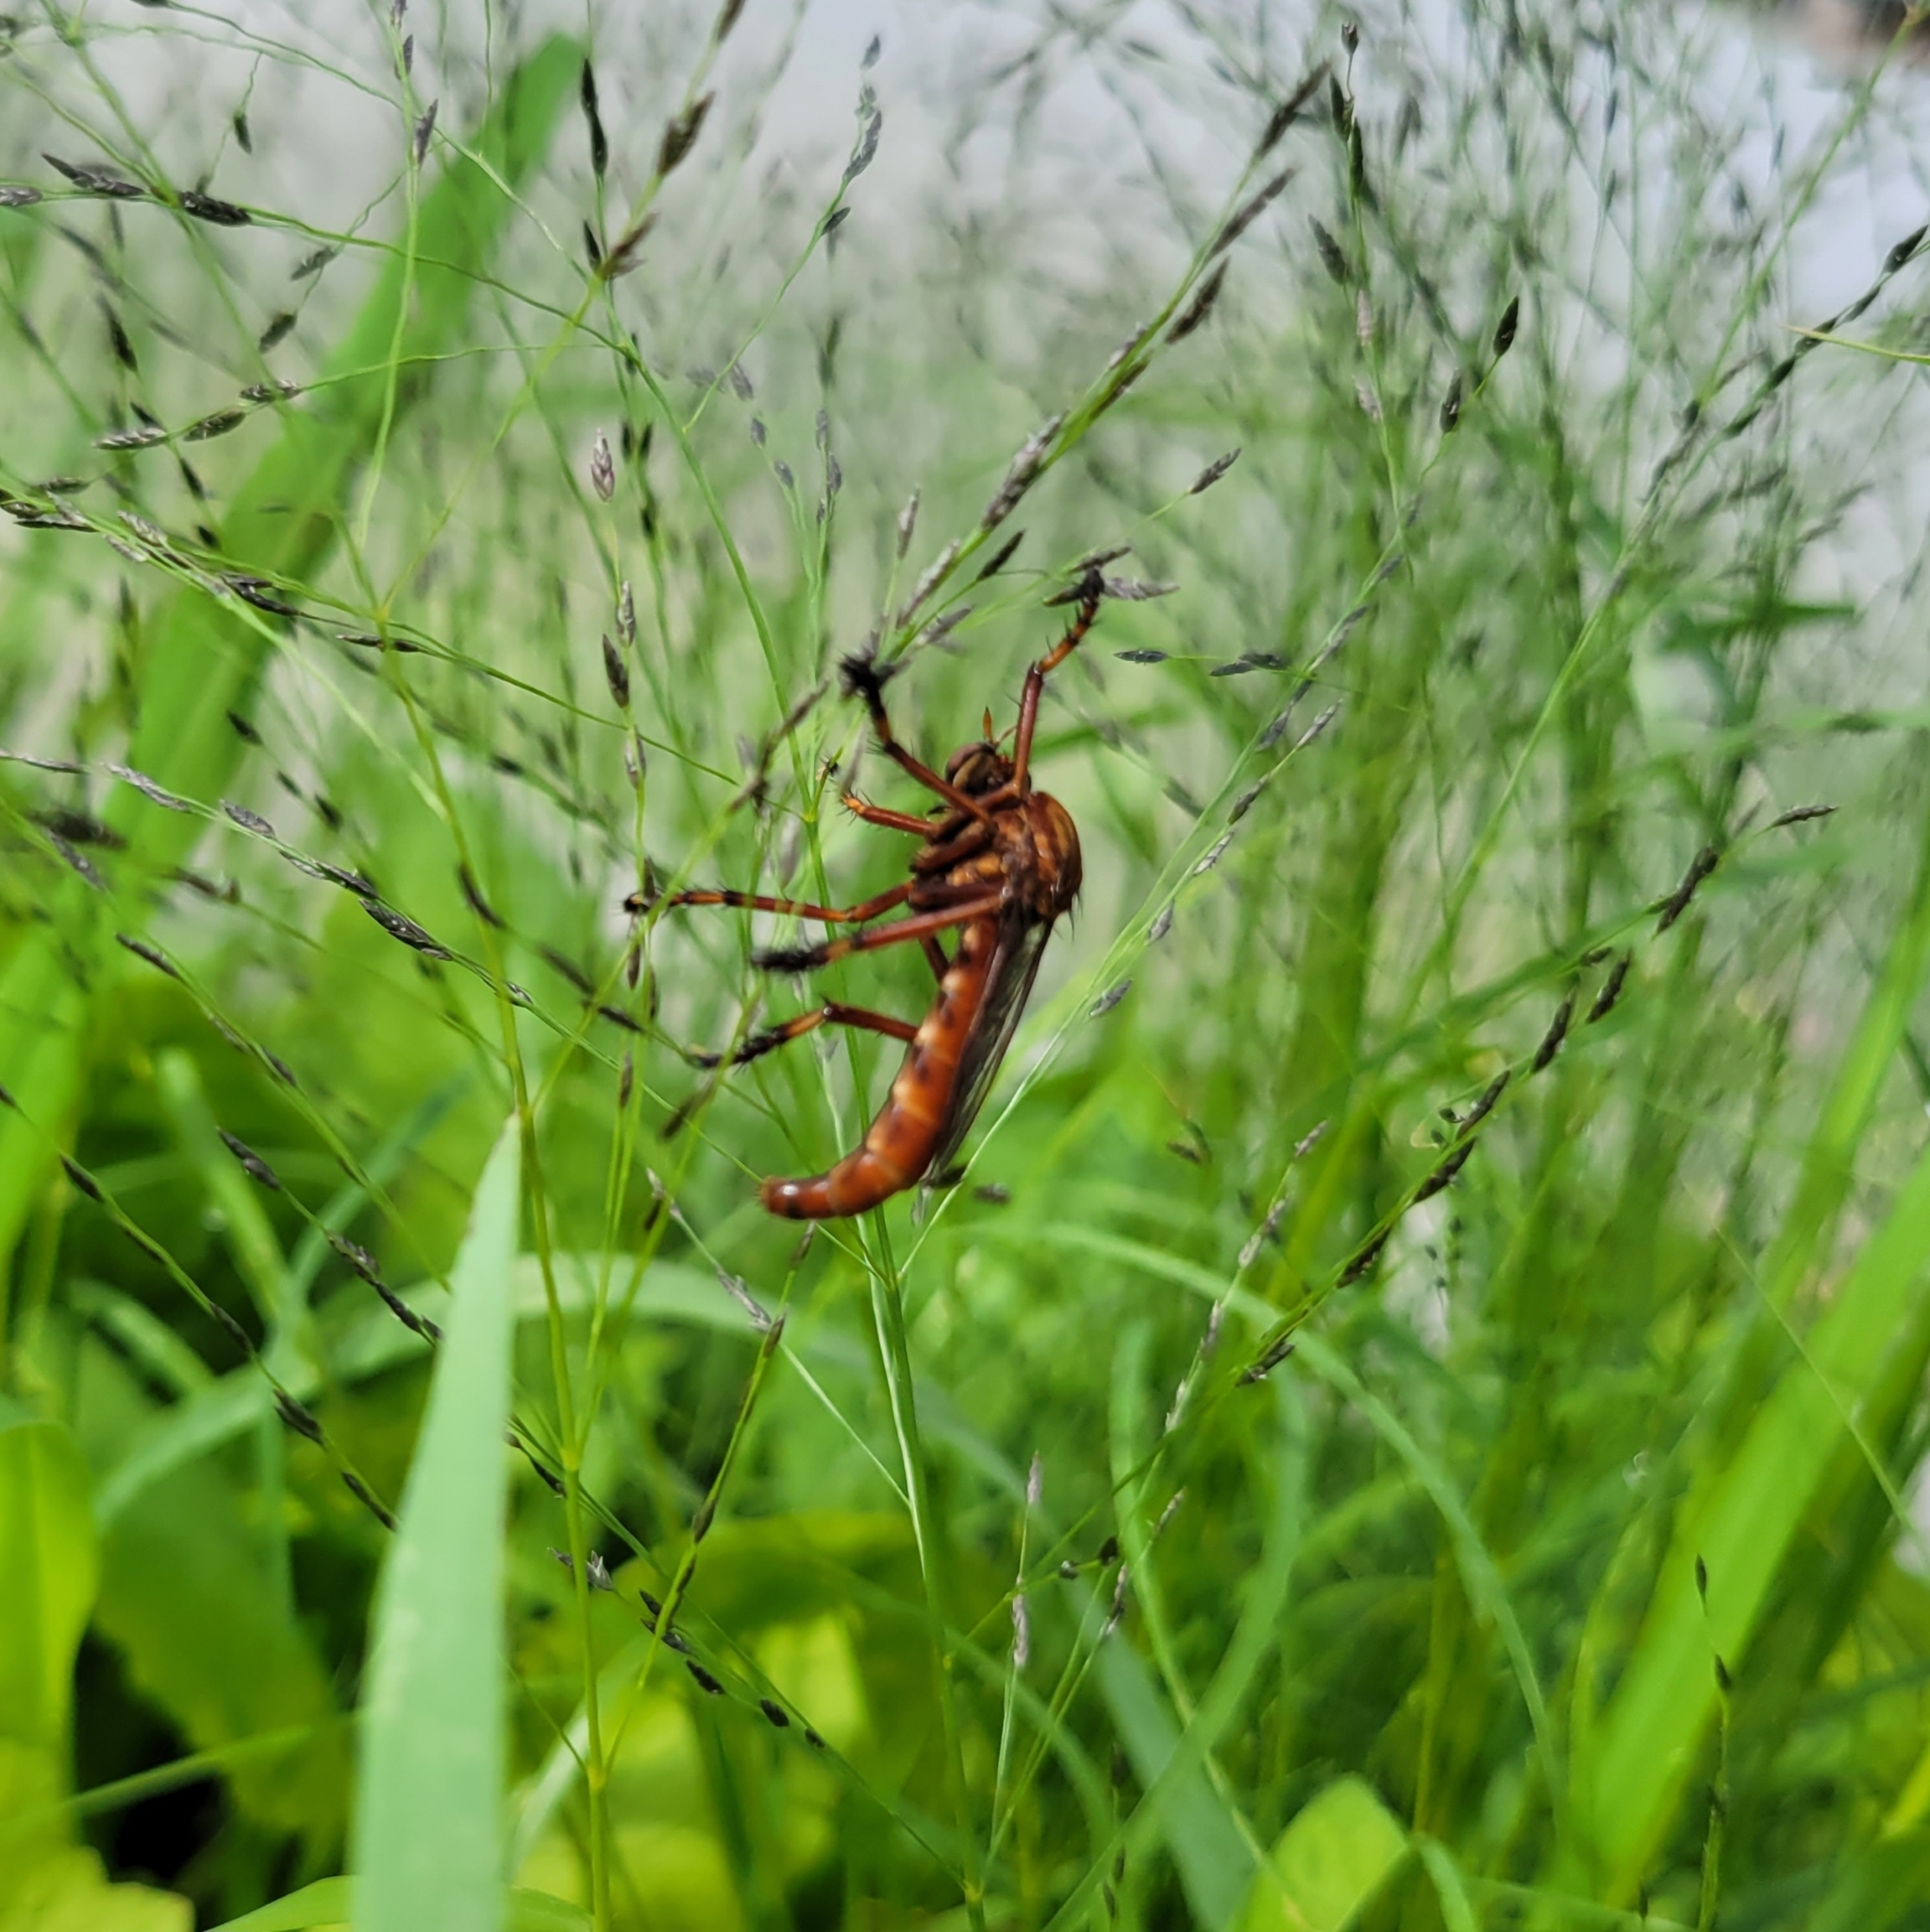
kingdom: Animalia
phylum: Arthropoda
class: Insecta
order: Diptera
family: Asilidae
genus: Diogmites
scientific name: Diogmites basalis
